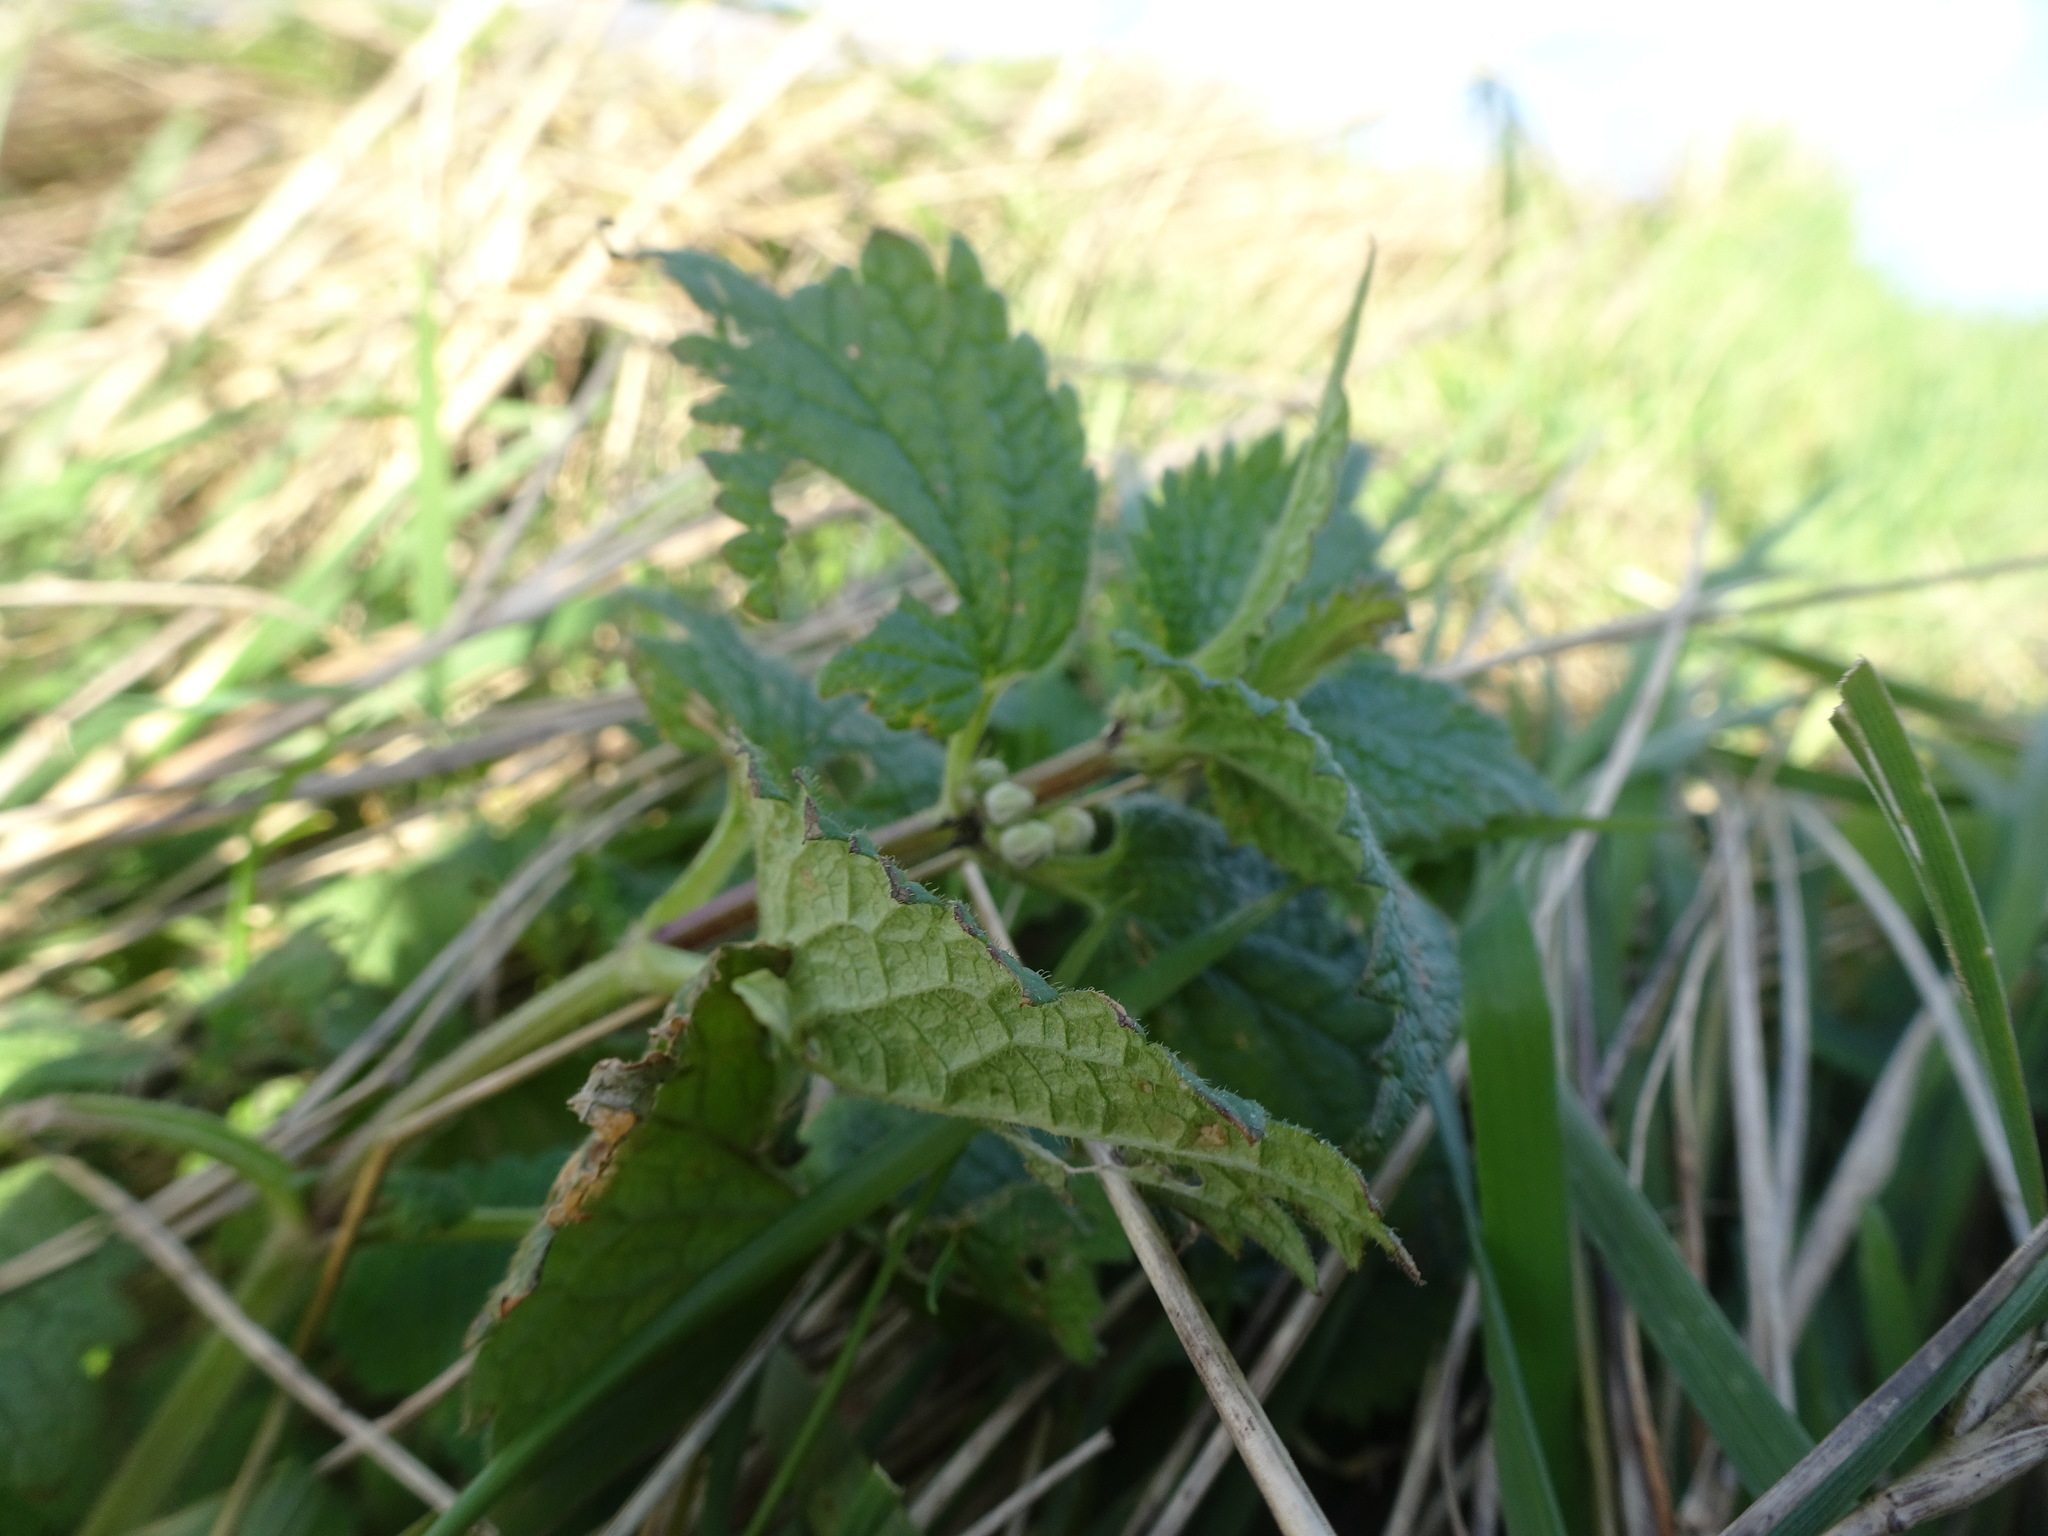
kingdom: Plantae
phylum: Tracheophyta
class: Magnoliopsida
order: Lamiales
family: Lamiaceae
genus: Lamium
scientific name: Lamium album
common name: White dead-nettle
